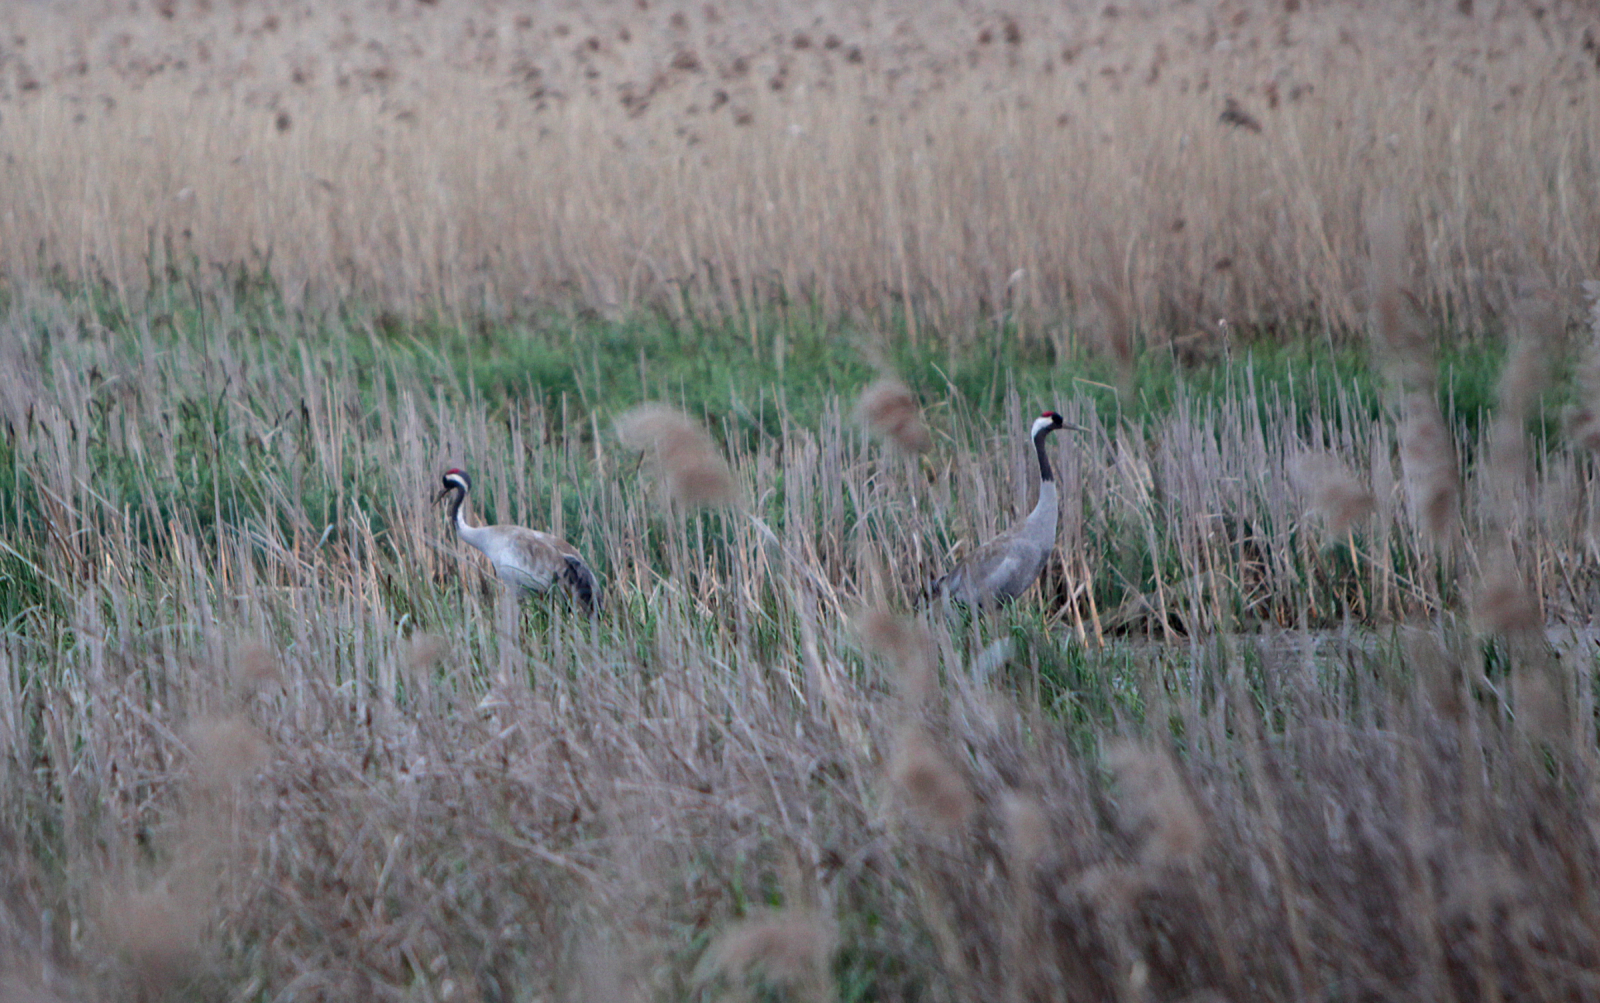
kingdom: Animalia
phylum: Chordata
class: Aves
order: Gruiformes
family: Gruidae
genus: Grus
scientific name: Grus grus
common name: Common crane
